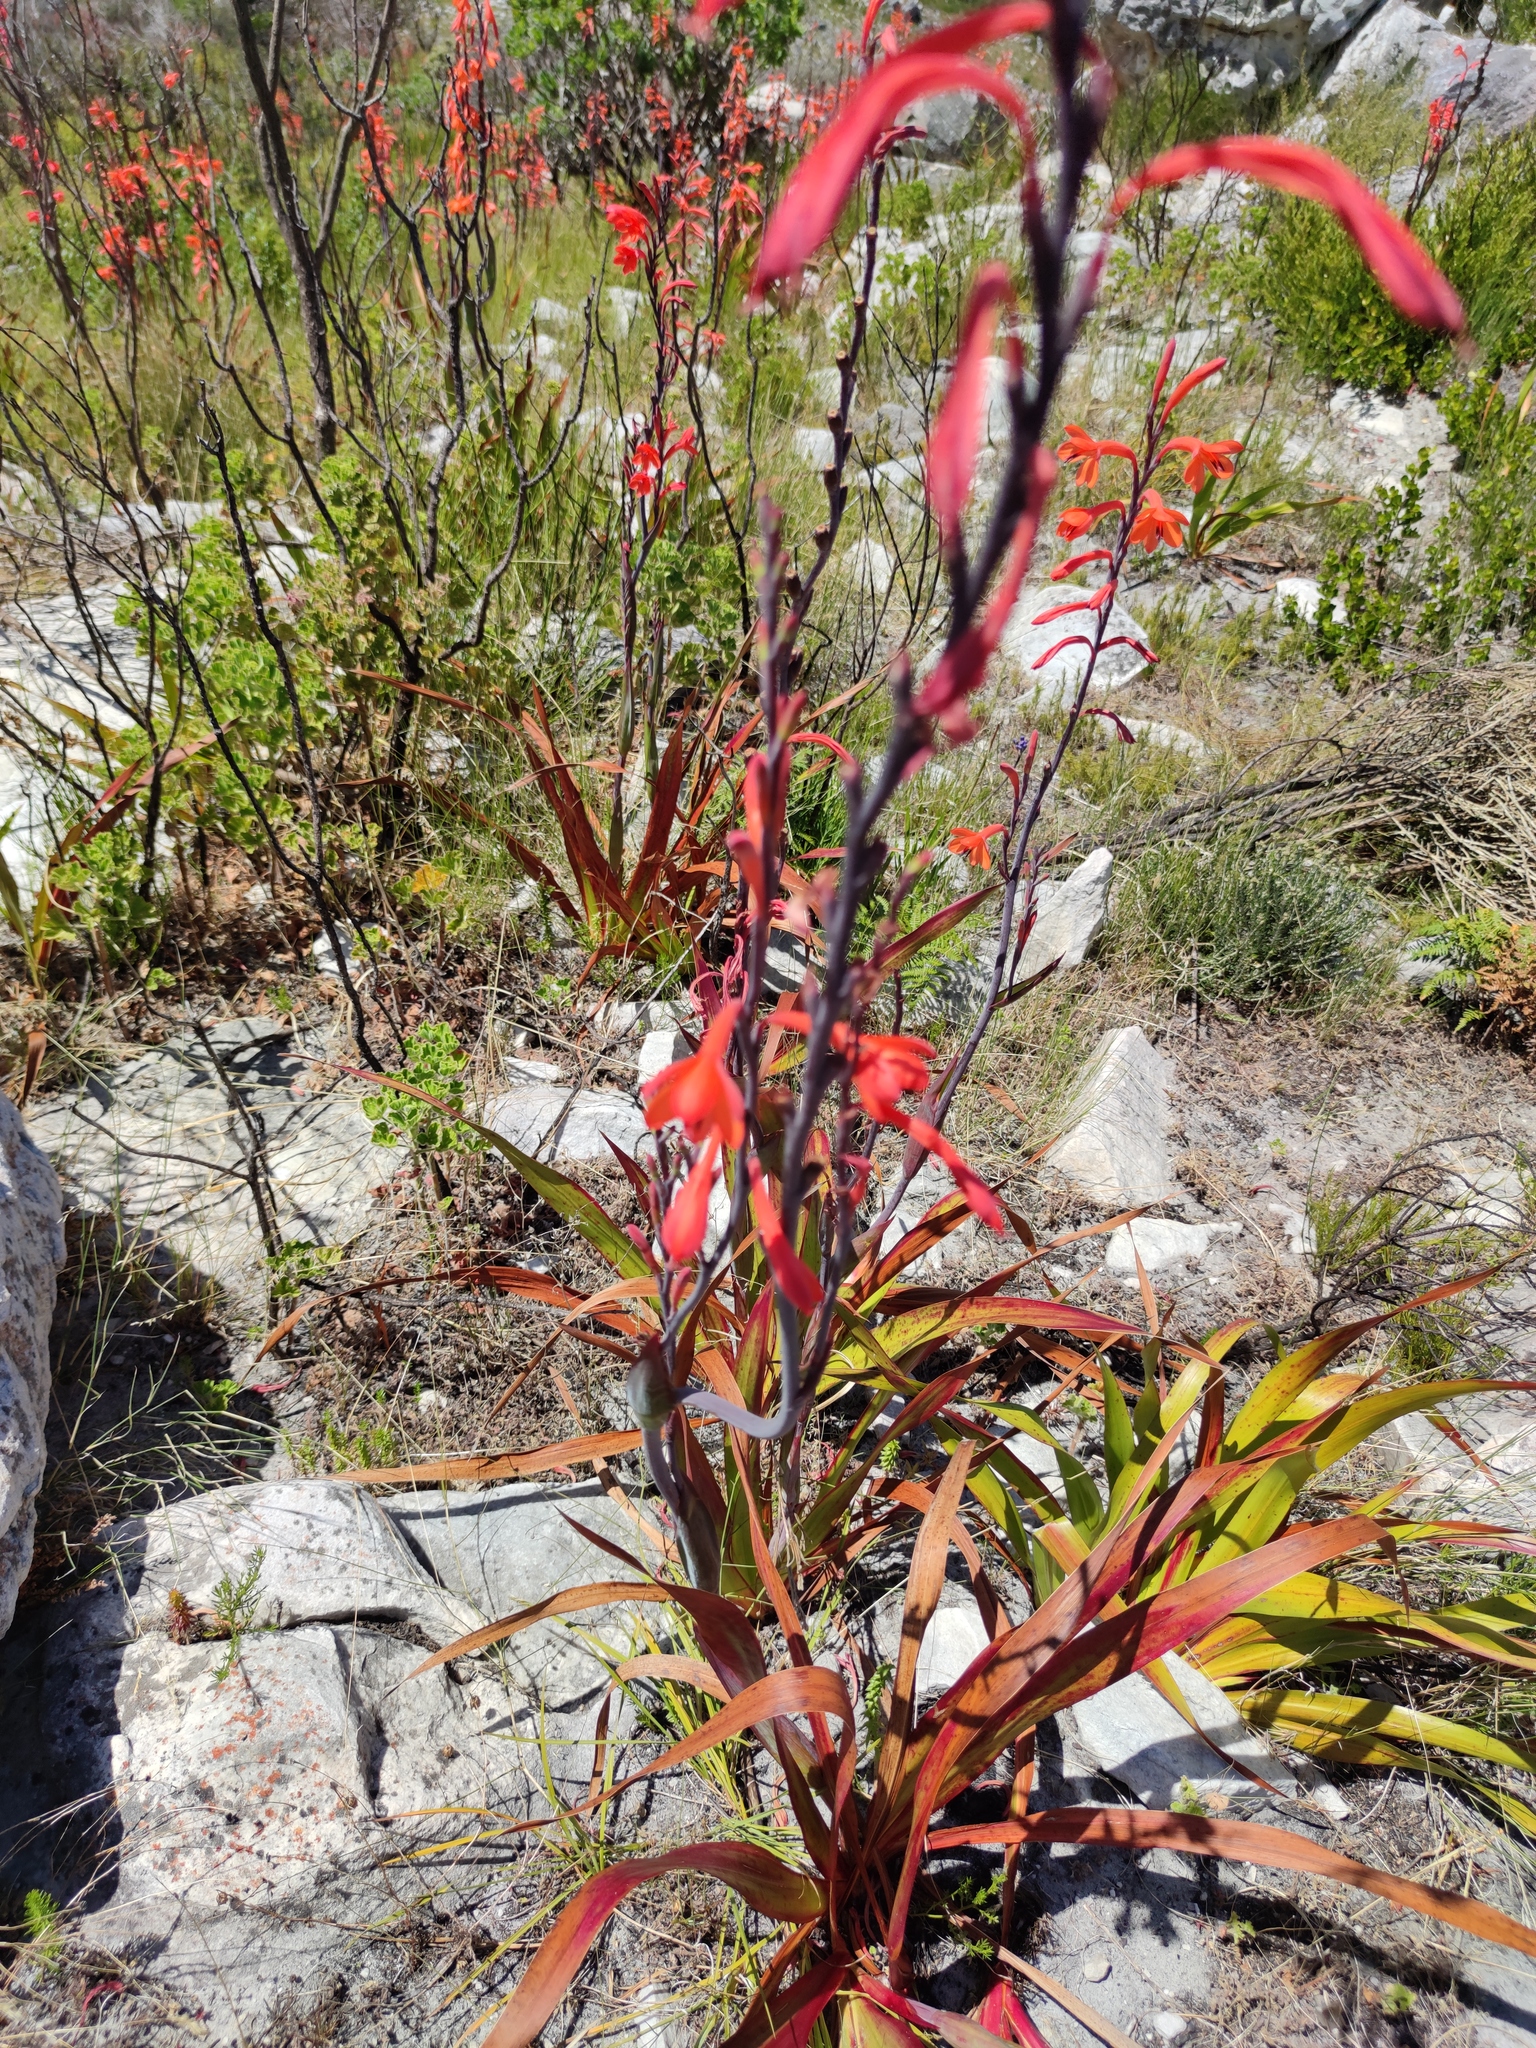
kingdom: Plantae
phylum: Tracheophyta
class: Liliopsida
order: Asparagales
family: Iridaceae
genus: Watsonia
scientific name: Watsonia tabularis
